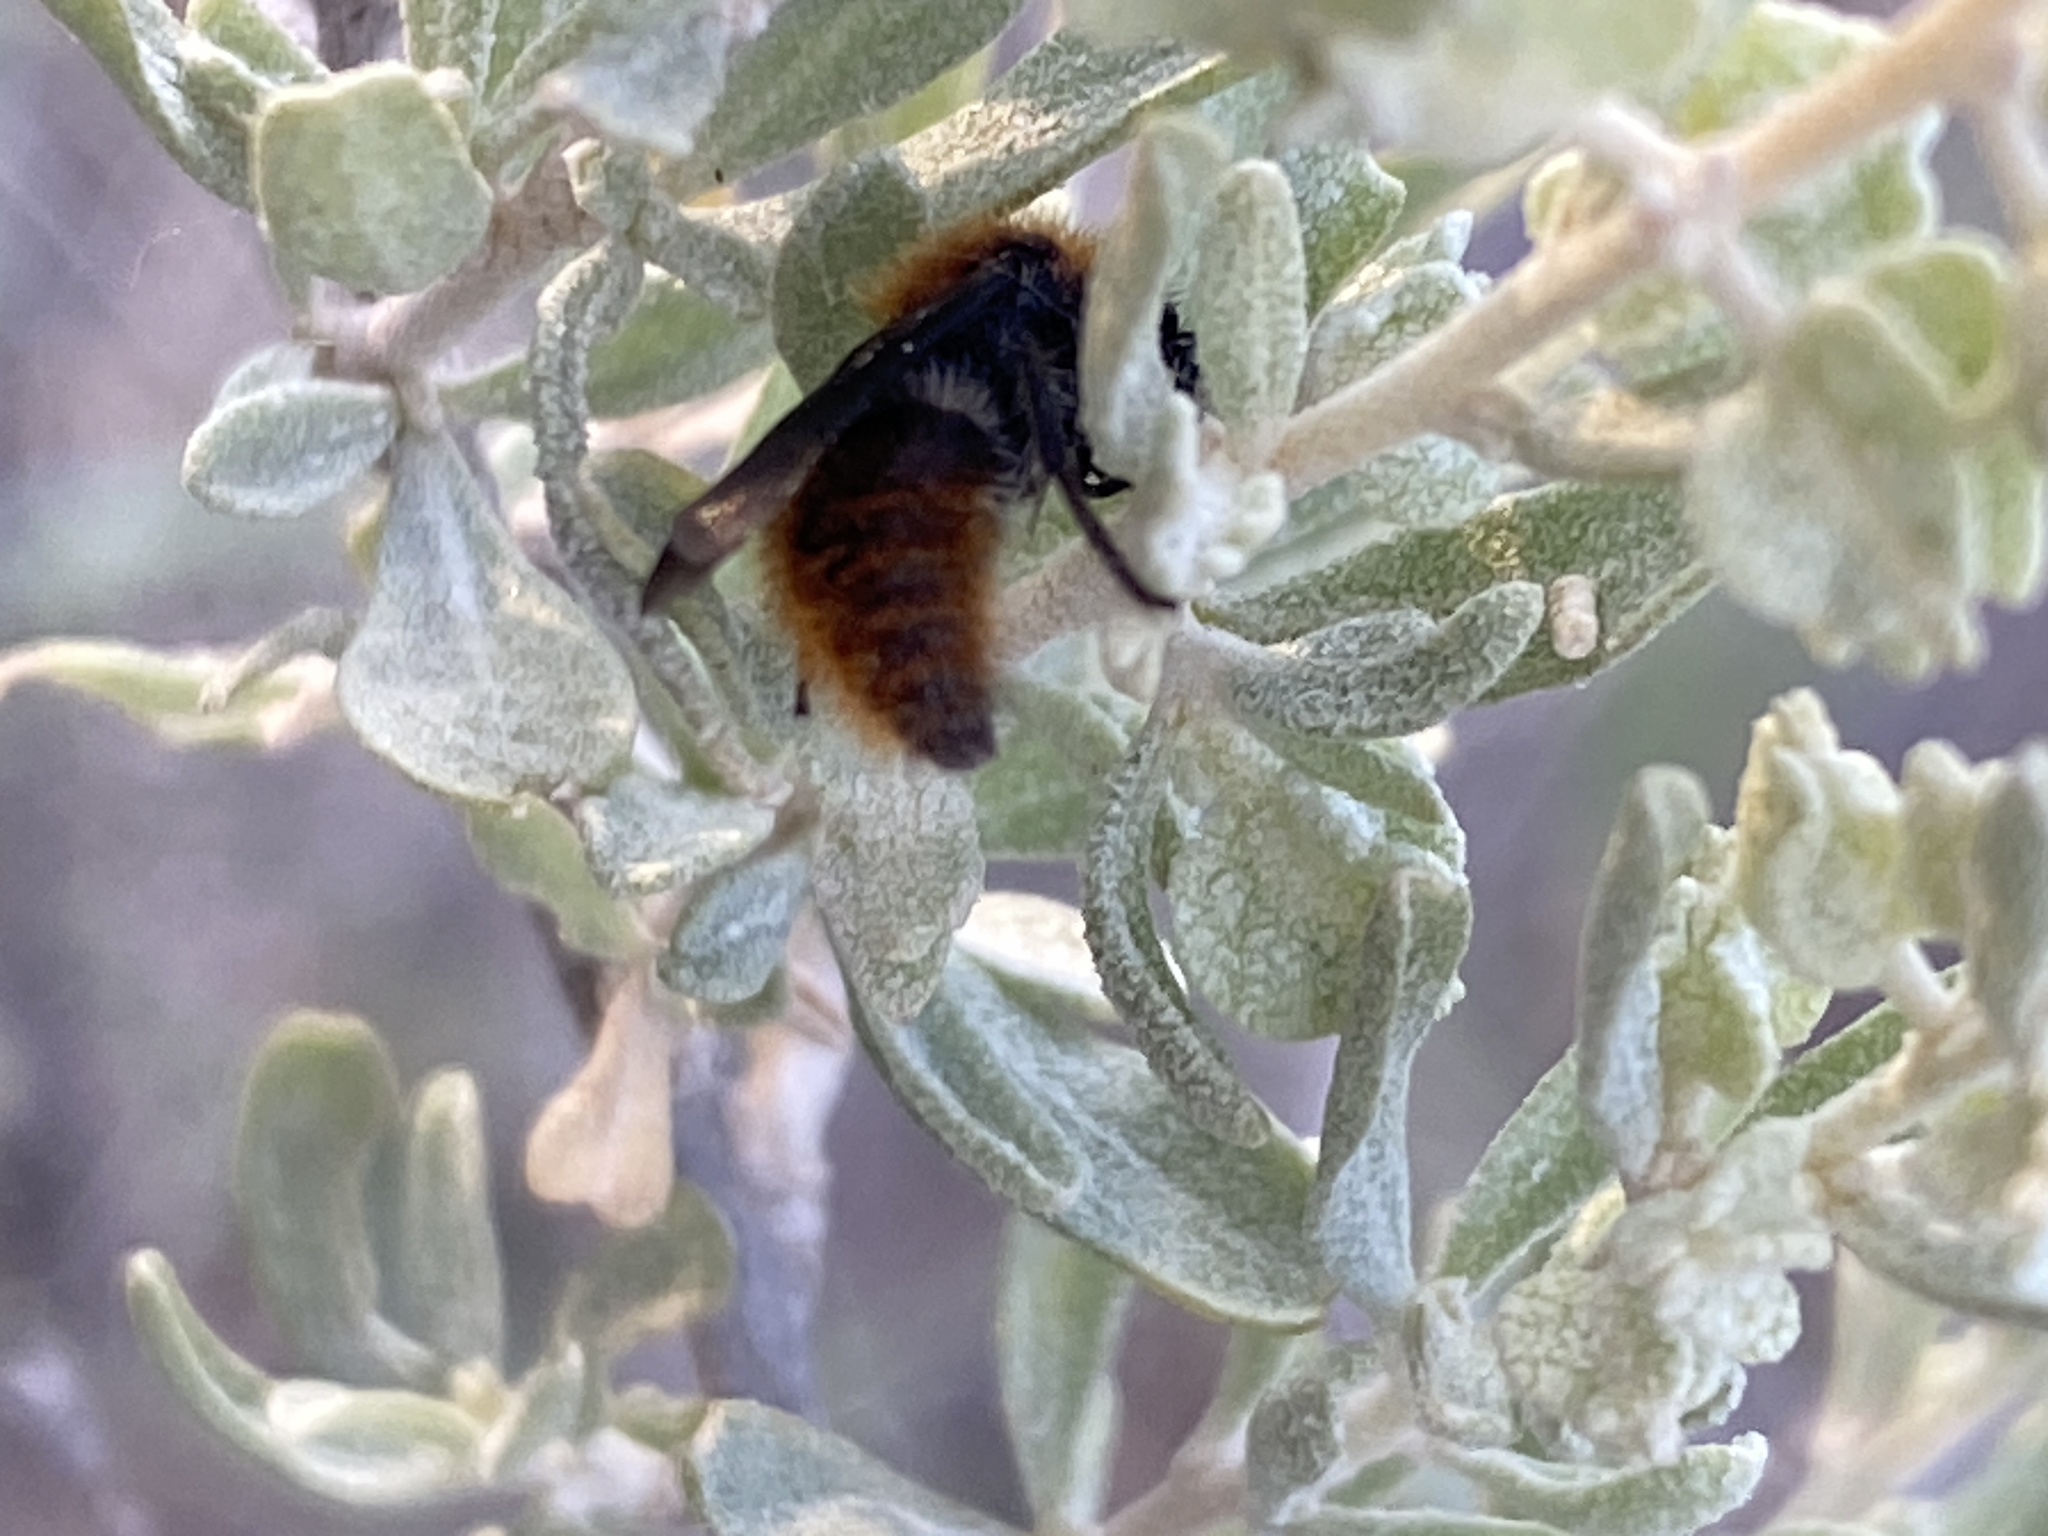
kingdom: Animalia
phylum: Arthropoda
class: Insecta
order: Hymenoptera
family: Mutillidae
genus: Pseudomethoca
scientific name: Pseudomethoca
